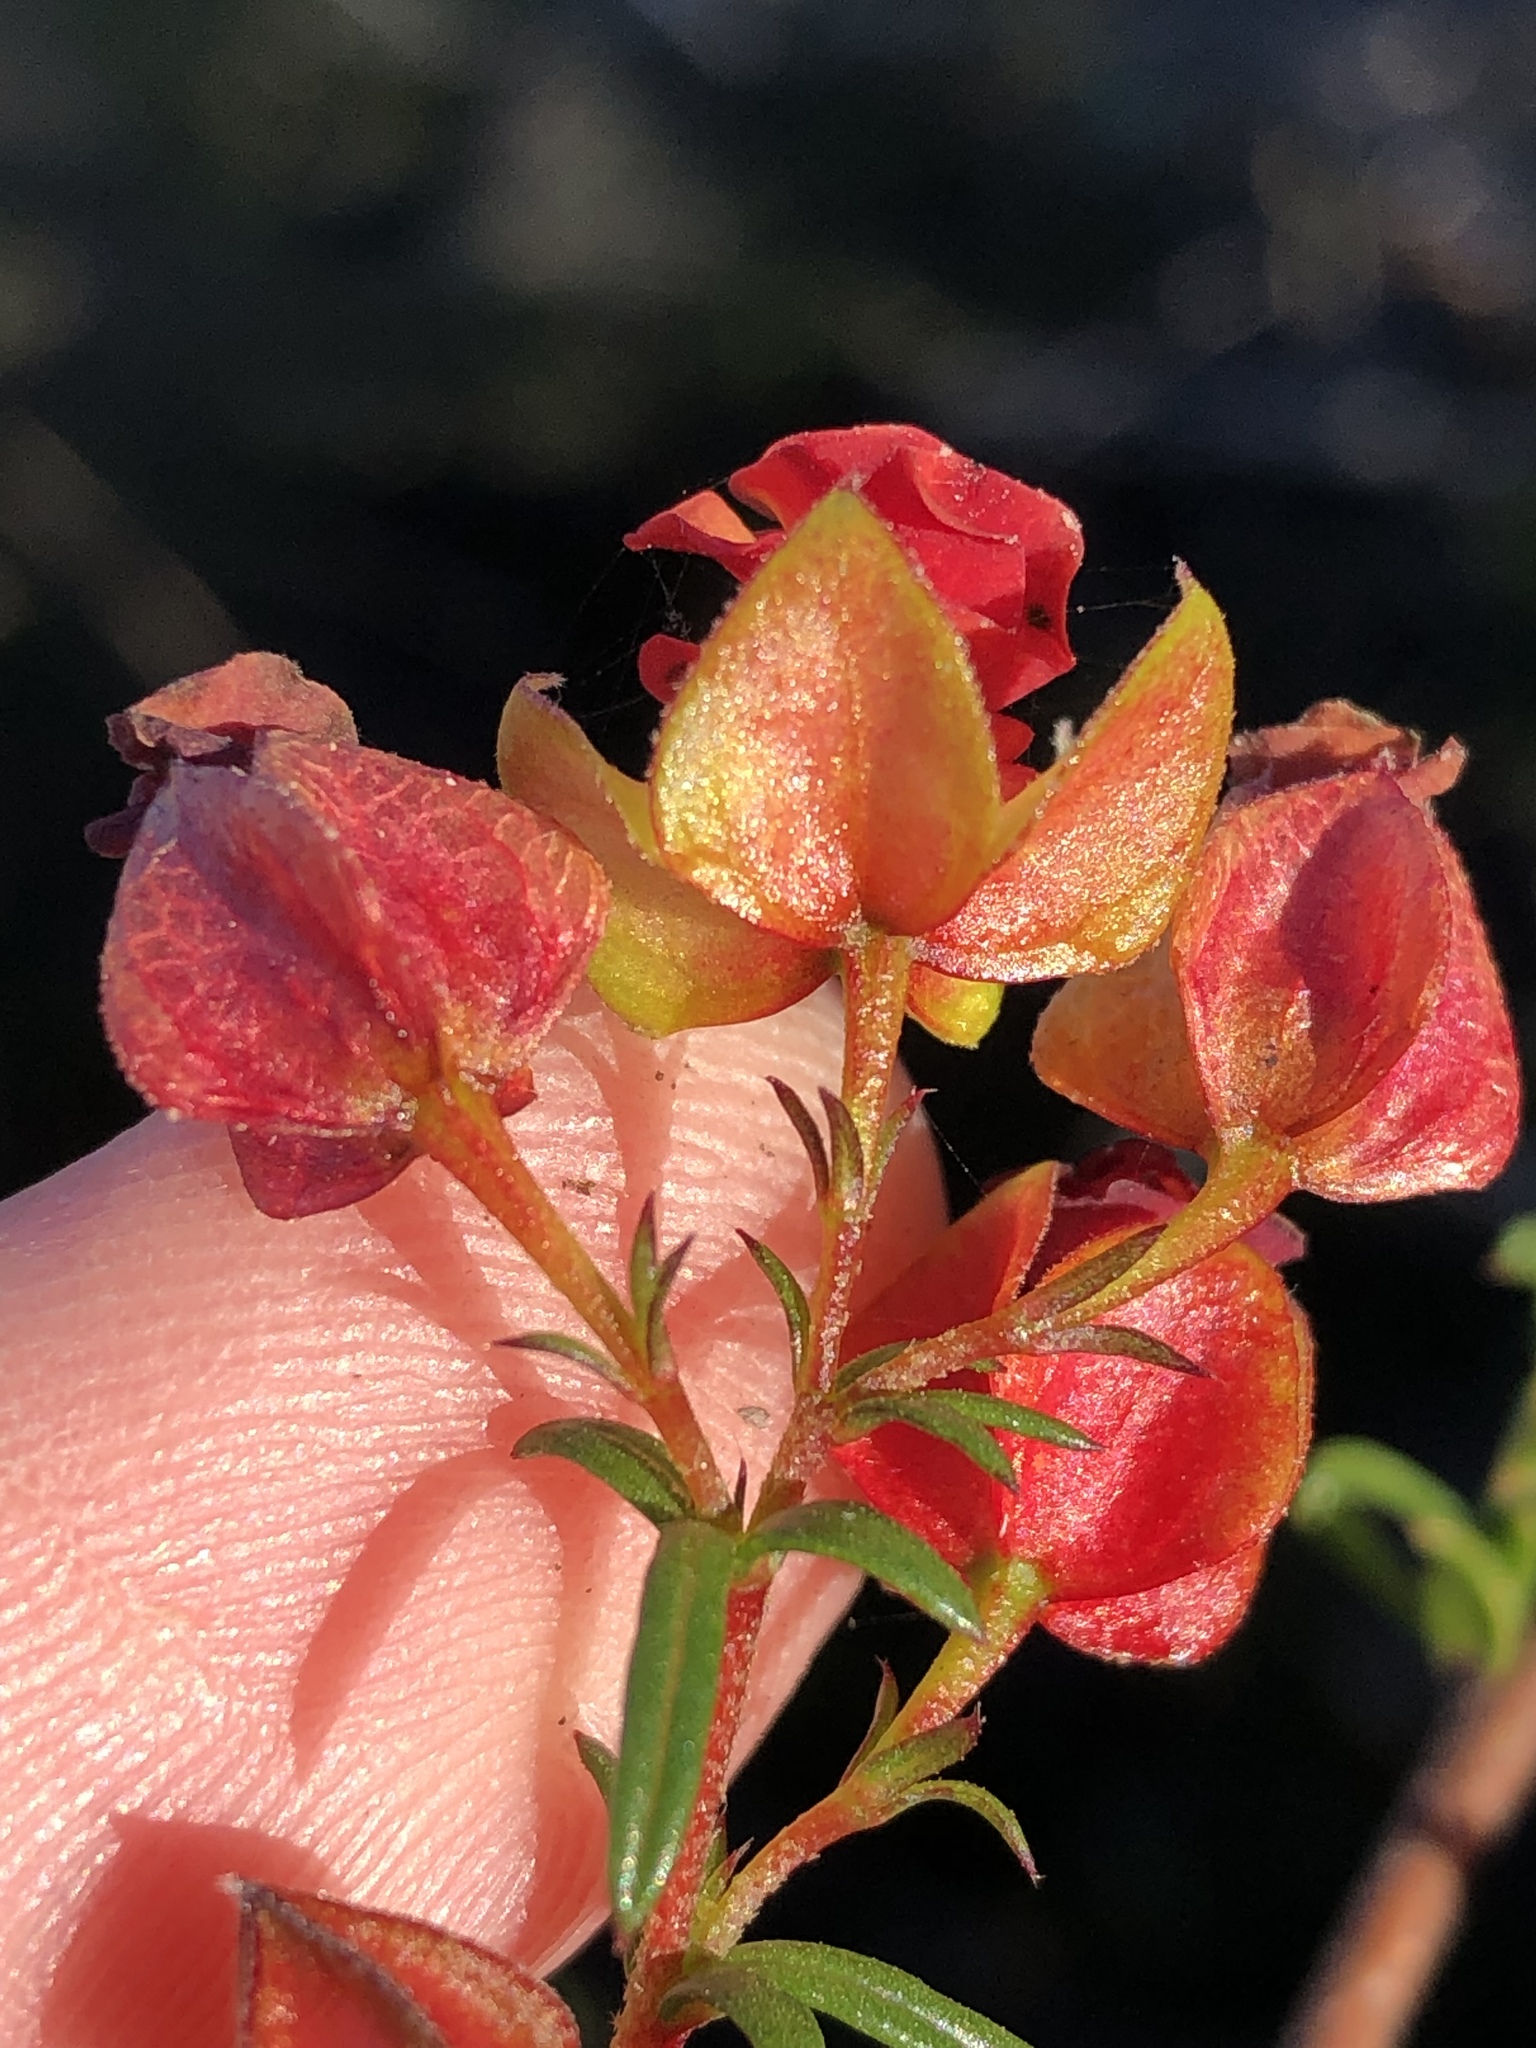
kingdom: Plantae
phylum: Tracheophyta
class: Magnoliopsida
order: Malvales
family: Malvaceae
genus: Hermannia
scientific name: Hermannia angularis
